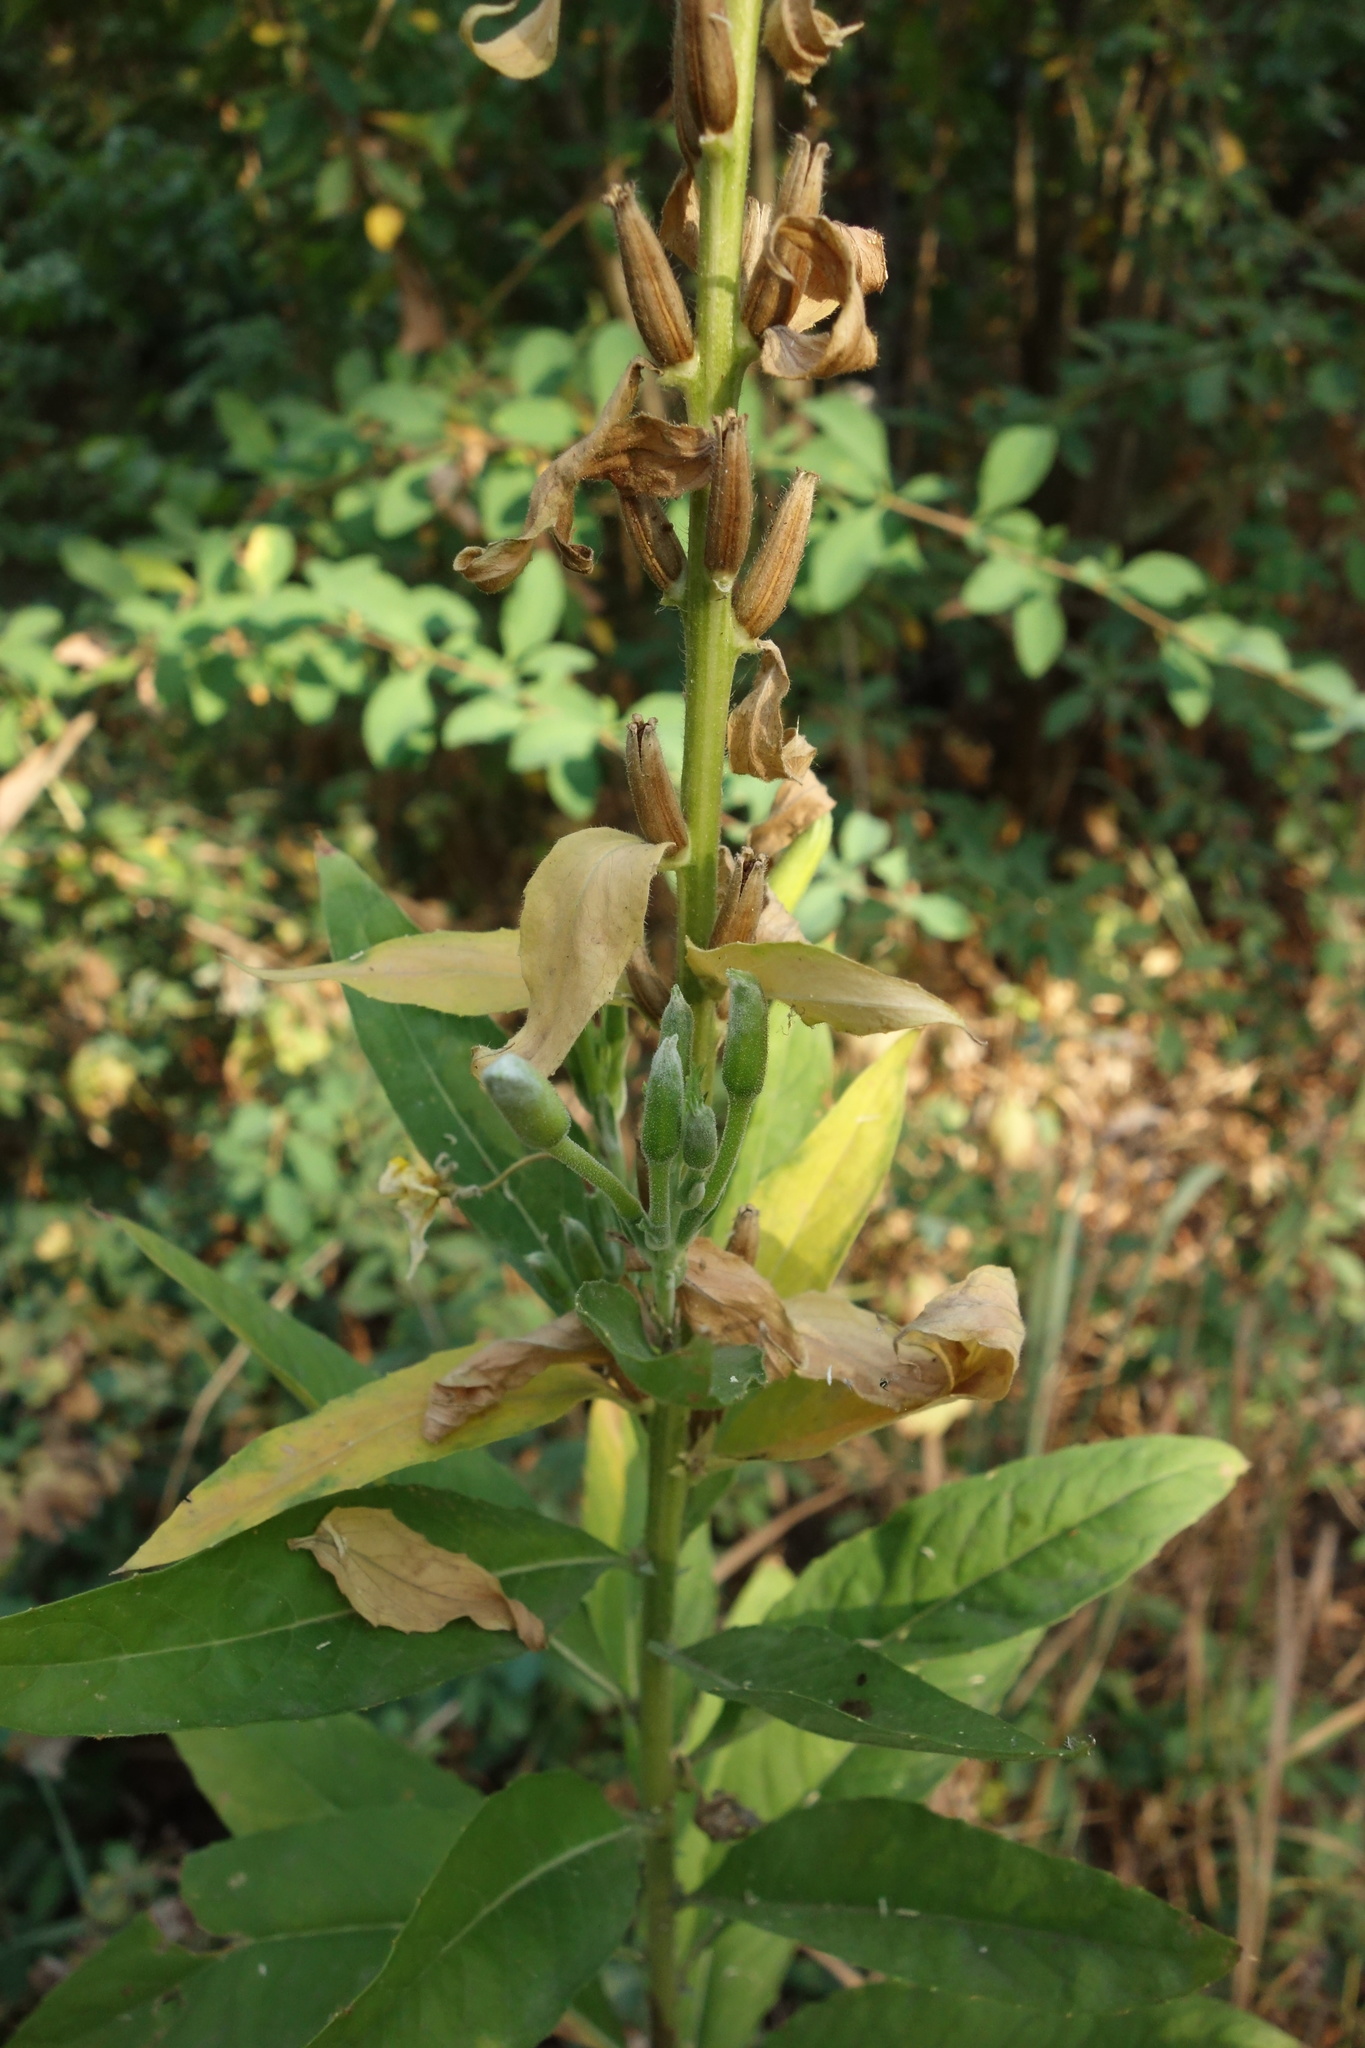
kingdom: Plantae
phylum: Tracheophyta
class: Magnoliopsida
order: Myrtales
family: Onagraceae
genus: Oenothera
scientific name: Oenothera biennis
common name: Common evening-primrose
